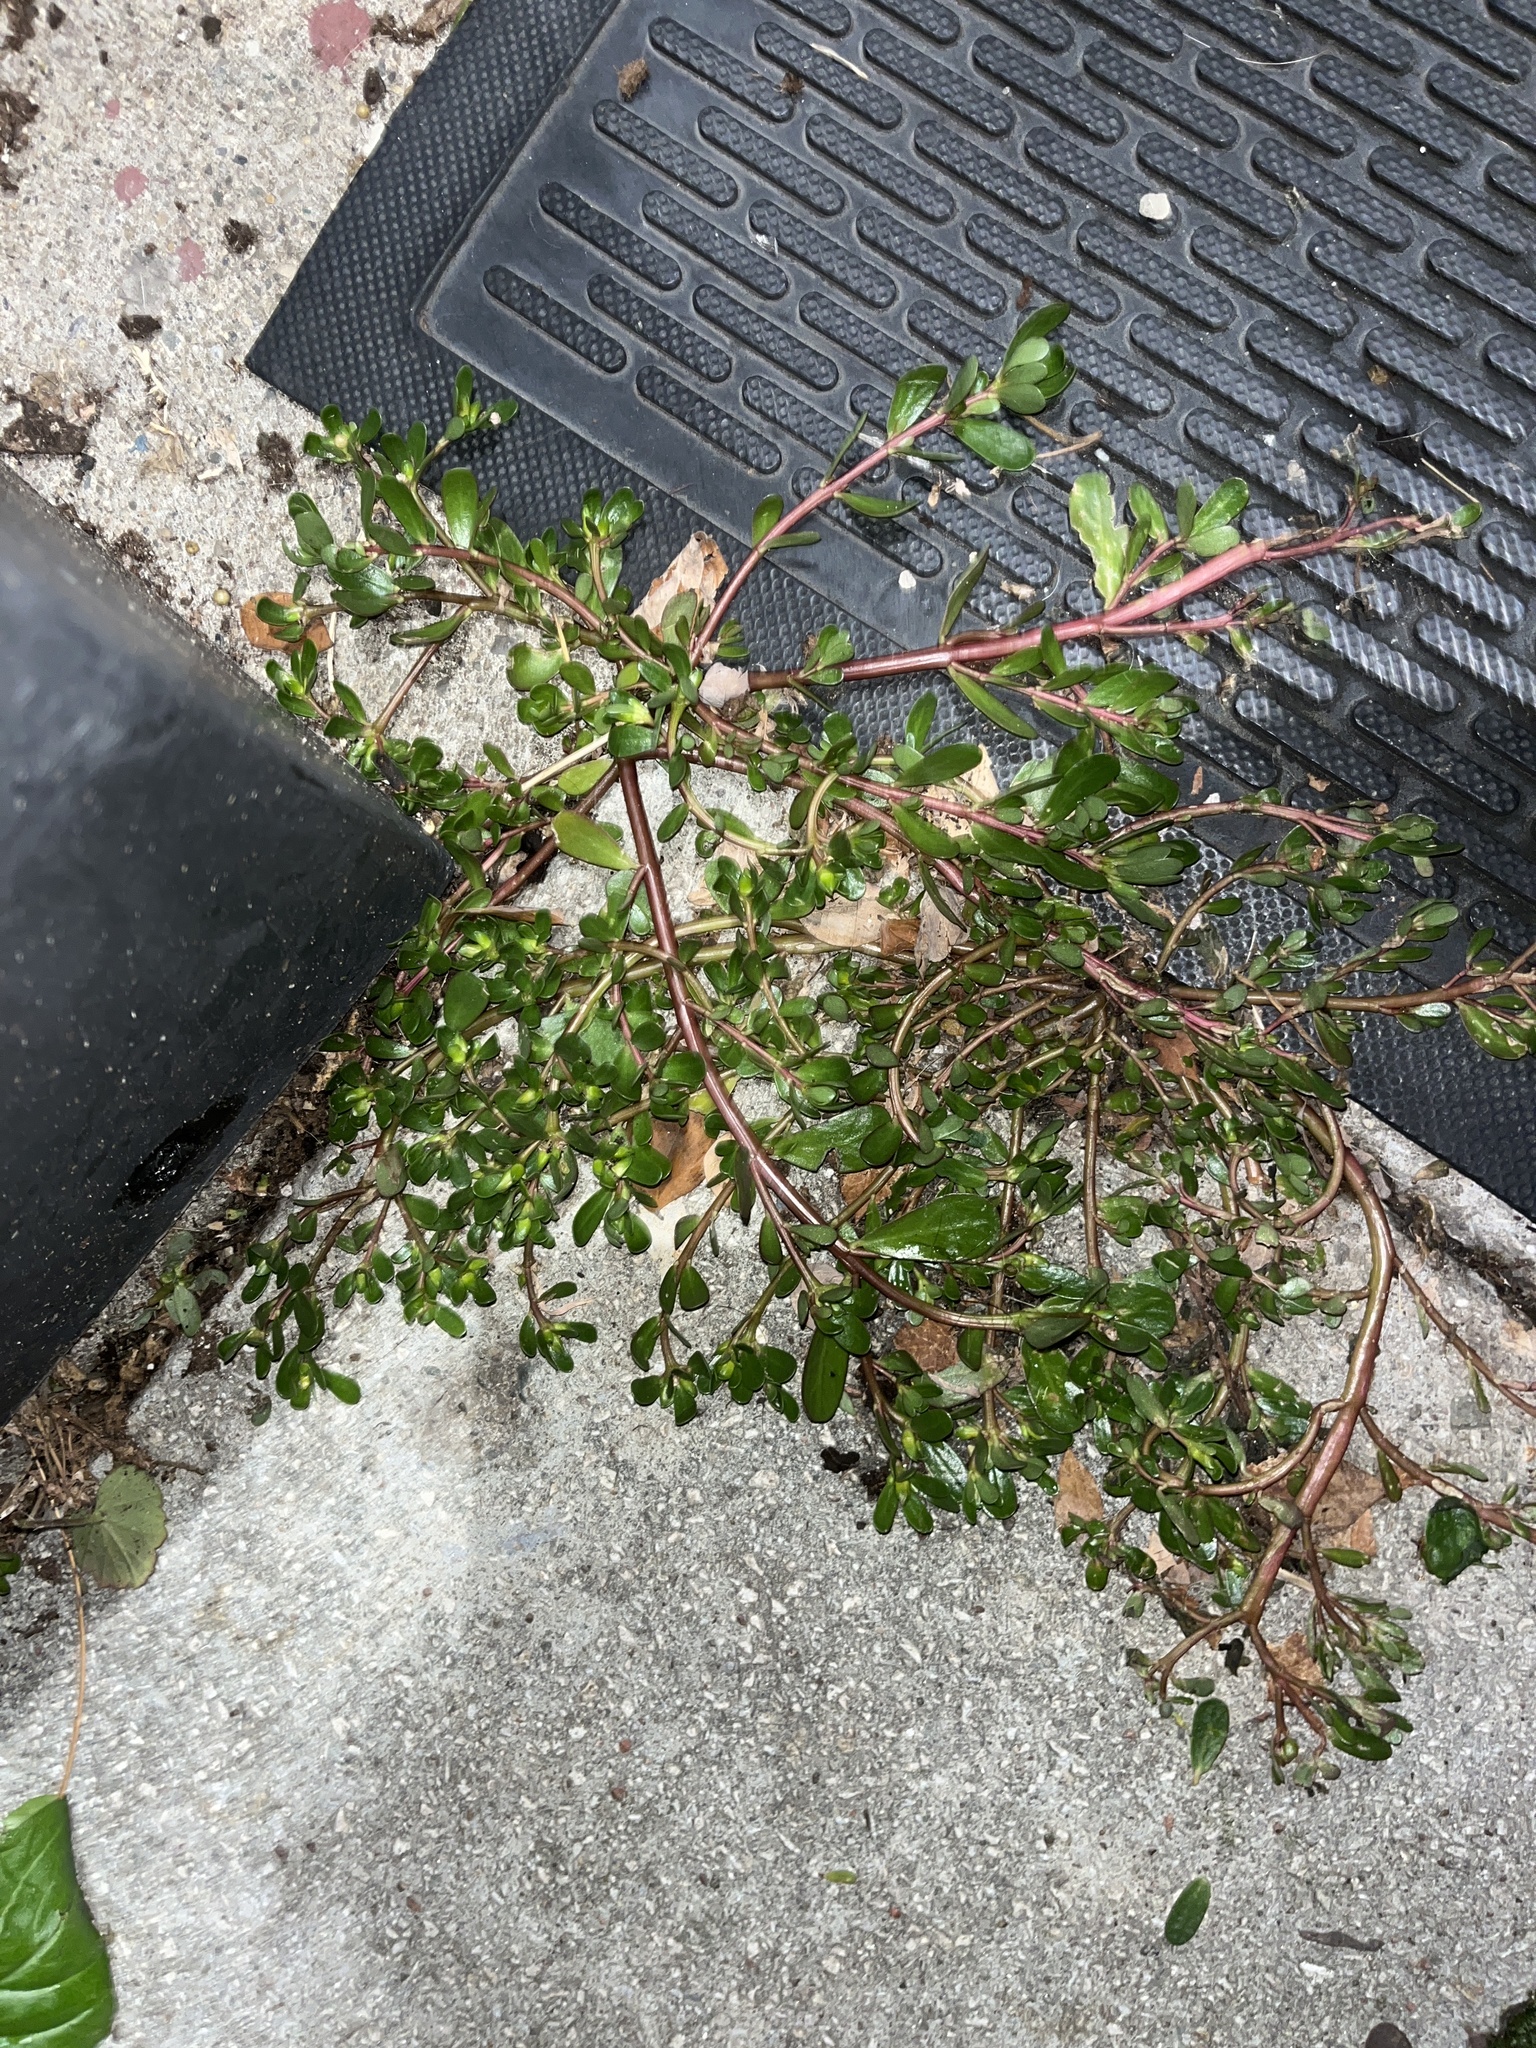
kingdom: Plantae
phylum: Tracheophyta
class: Magnoliopsida
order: Caryophyllales
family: Portulacaceae
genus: Portulaca
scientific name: Portulaca oleracea
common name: Common purslane
